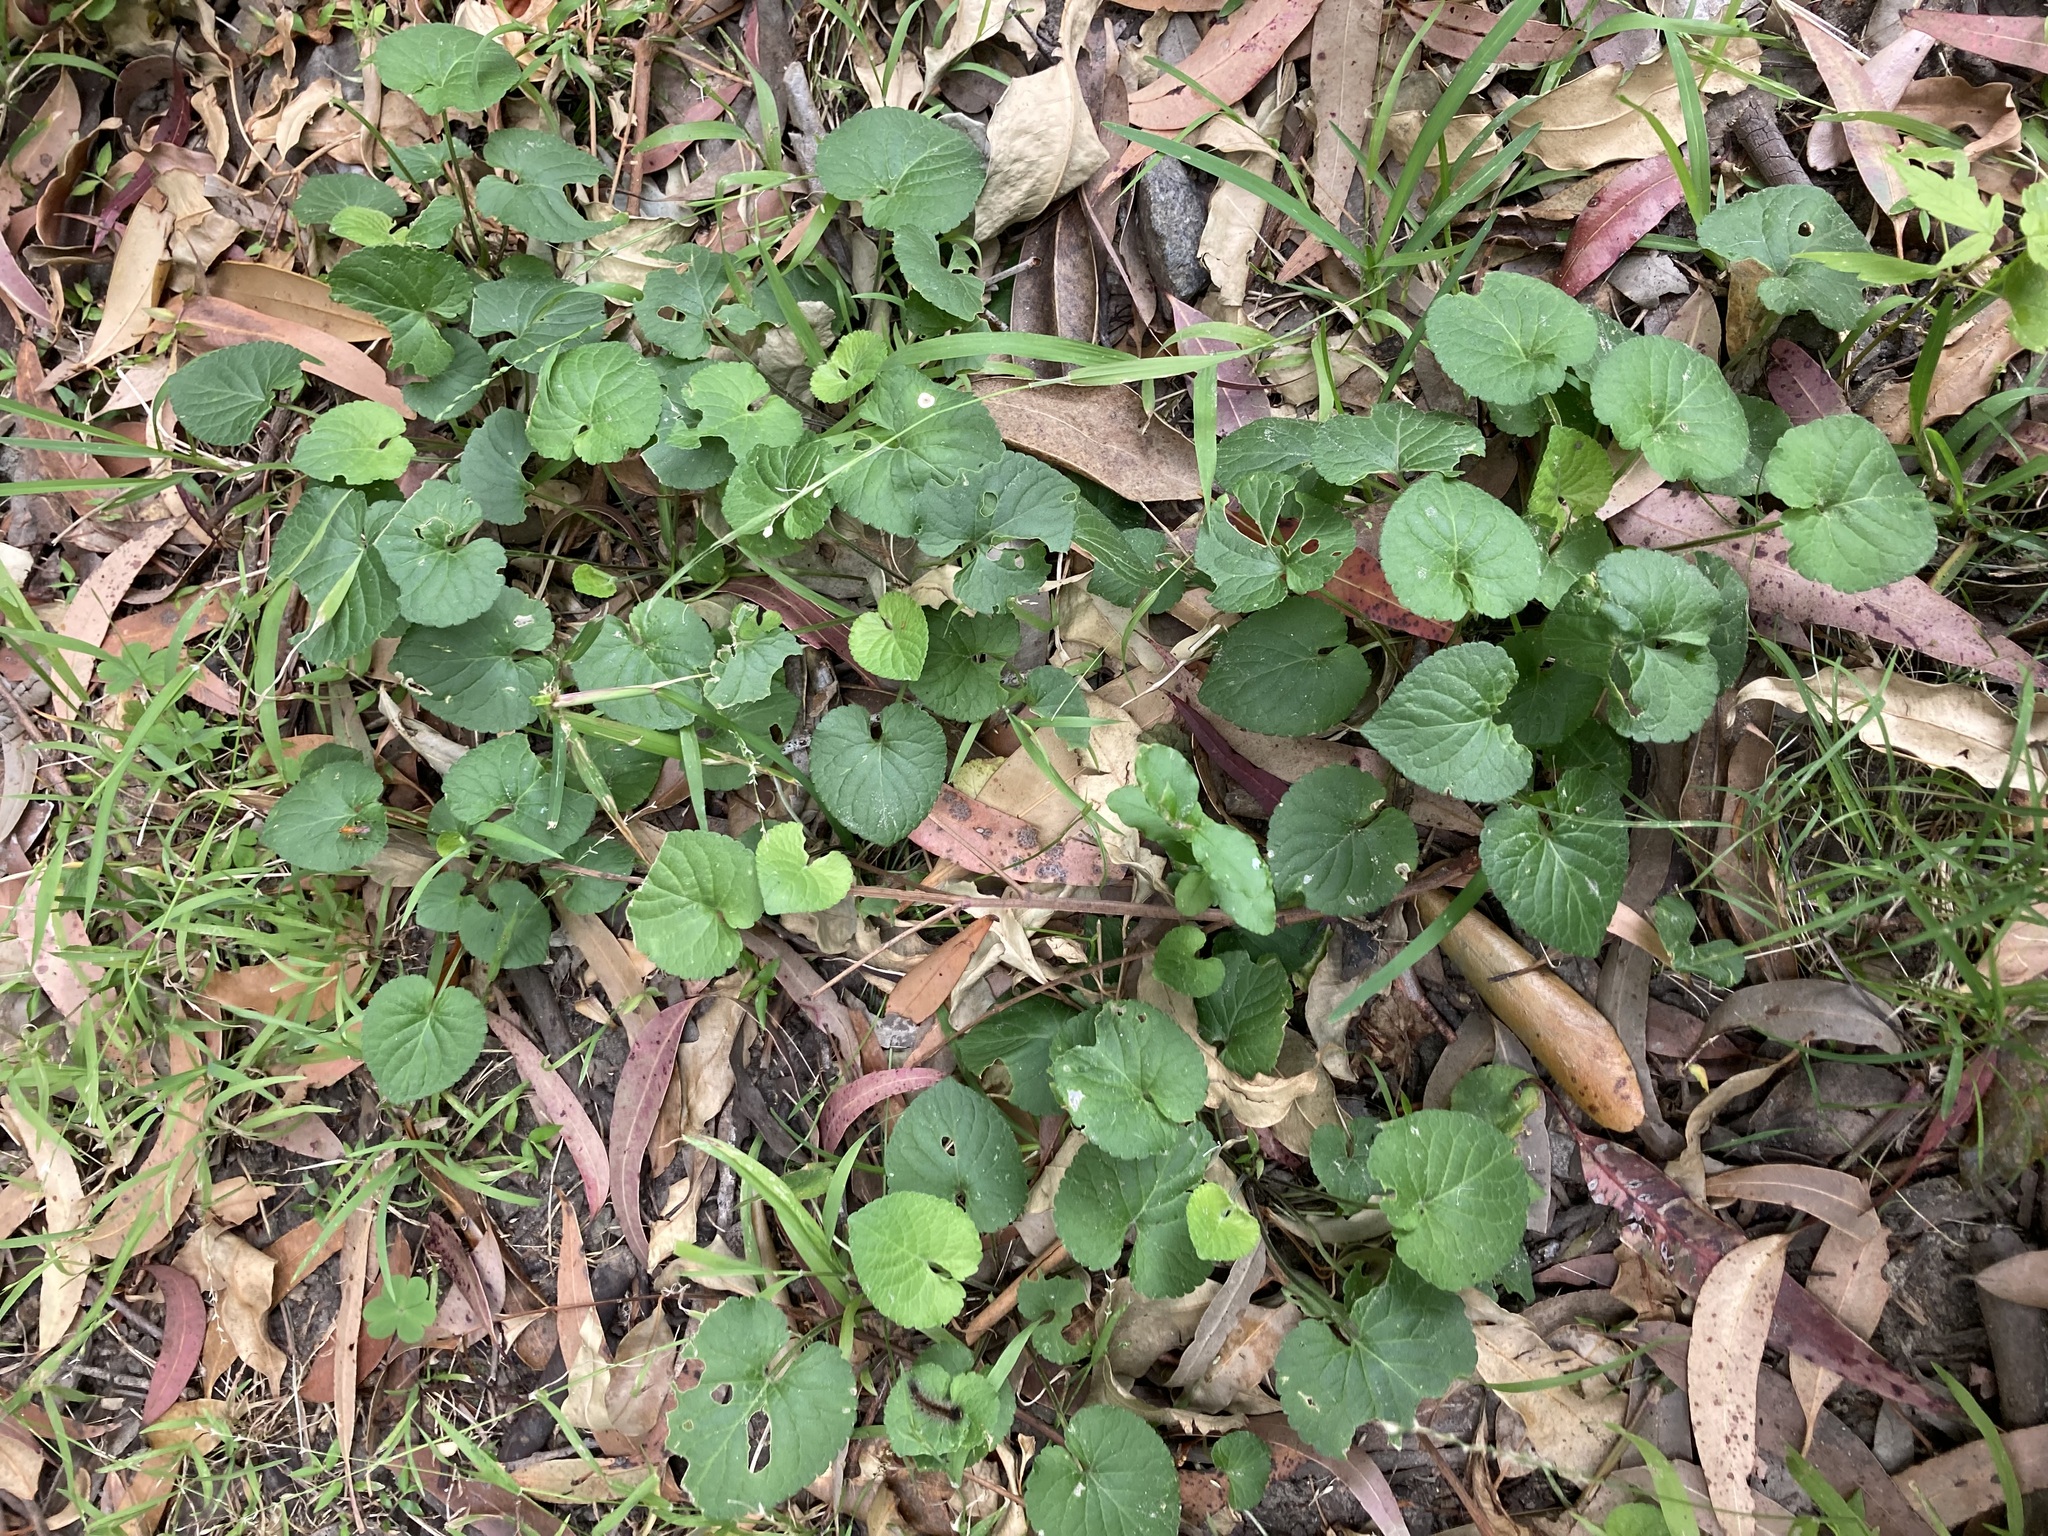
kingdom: Plantae
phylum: Tracheophyta
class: Magnoliopsida
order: Malpighiales
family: Violaceae
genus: Viola
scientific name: Viola odorata
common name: Sweet violet
